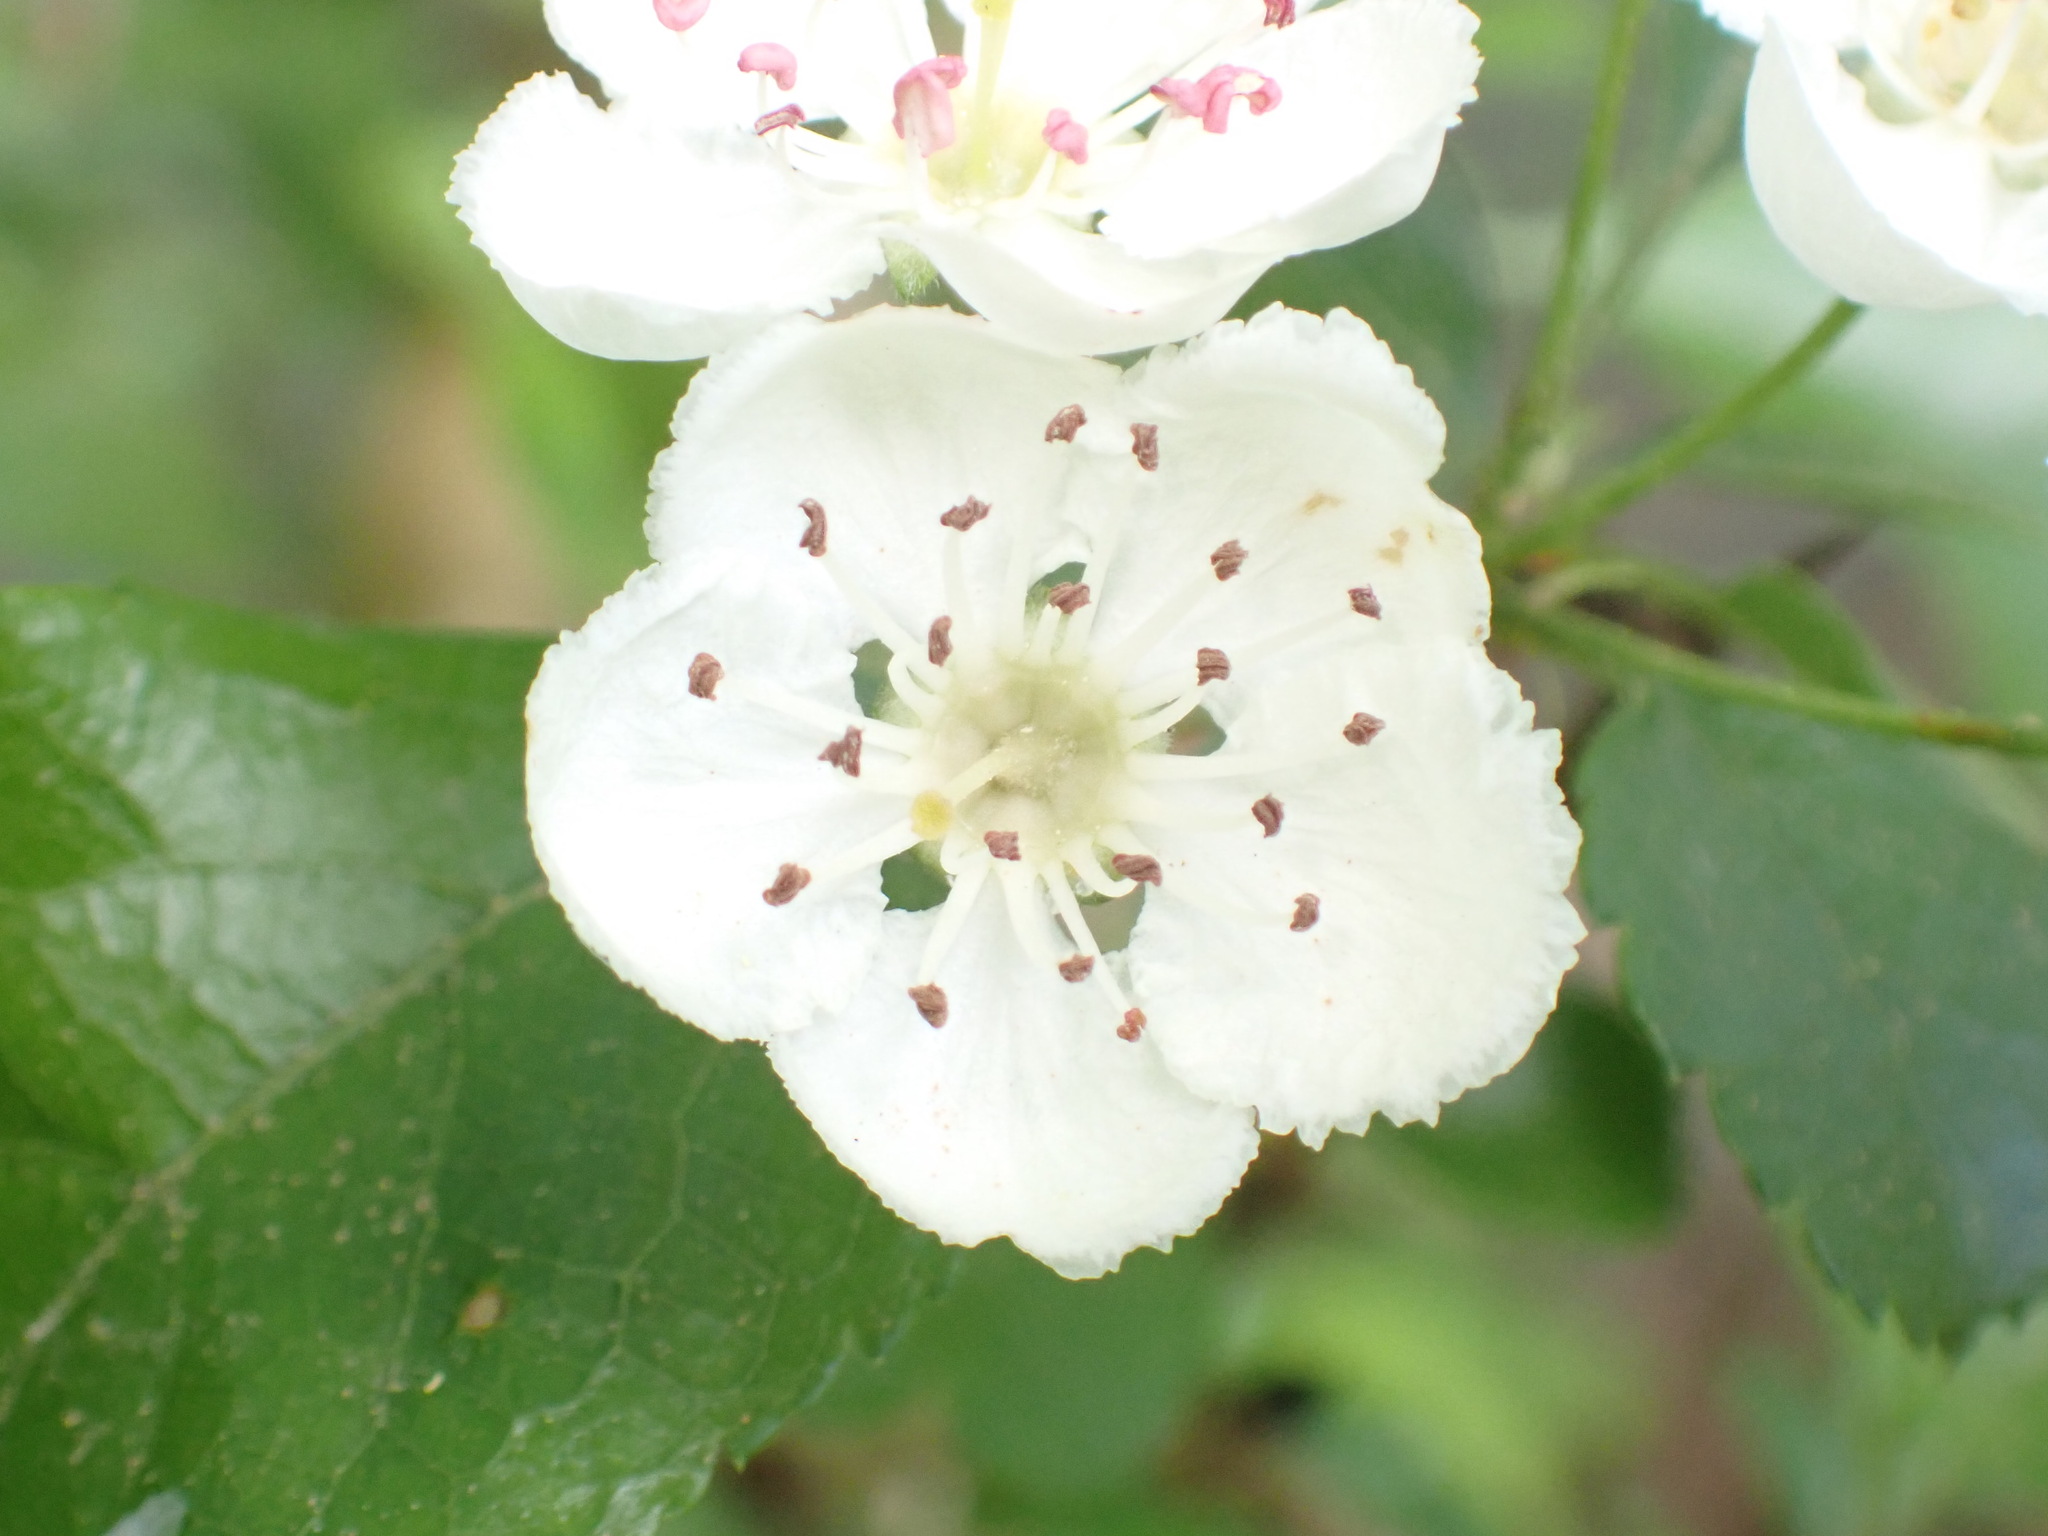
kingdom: Plantae
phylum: Tracheophyta
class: Magnoliopsida
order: Rosales
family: Rosaceae
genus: Crataegus
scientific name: Crataegus laevigata
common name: Midland hawthorn
